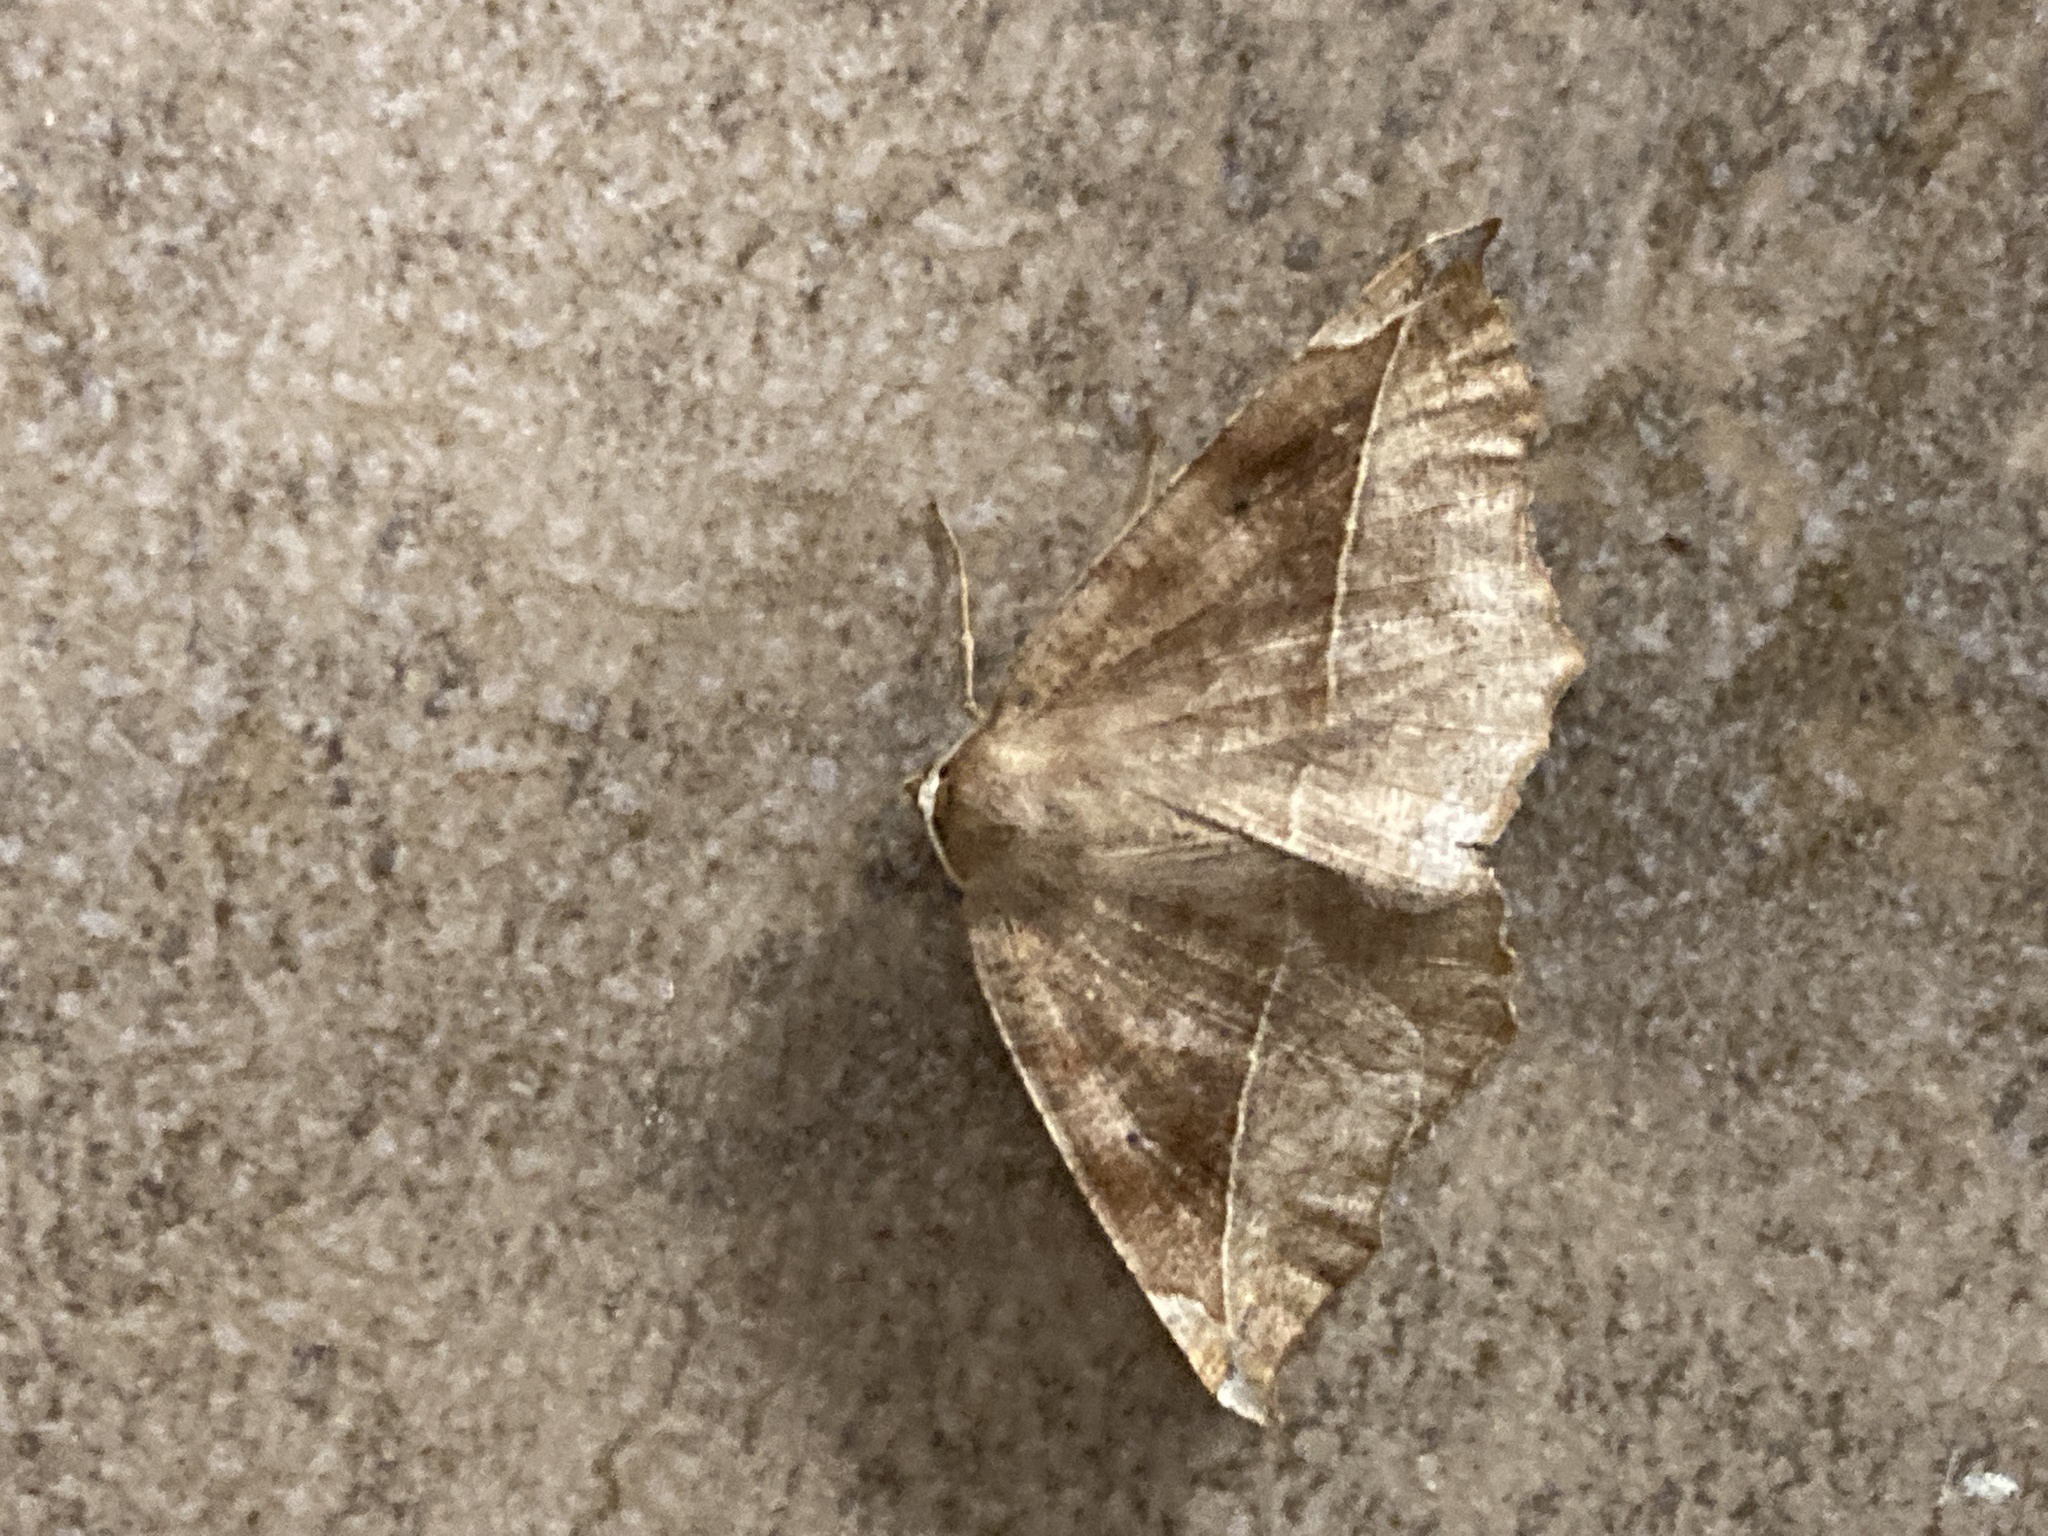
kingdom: Animalia
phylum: Arthropoda
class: Insecta
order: Lepidoptera
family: Geometridae
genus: Eutrapela
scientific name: Eutrapela clemataria
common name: Curved-toothed geometer
